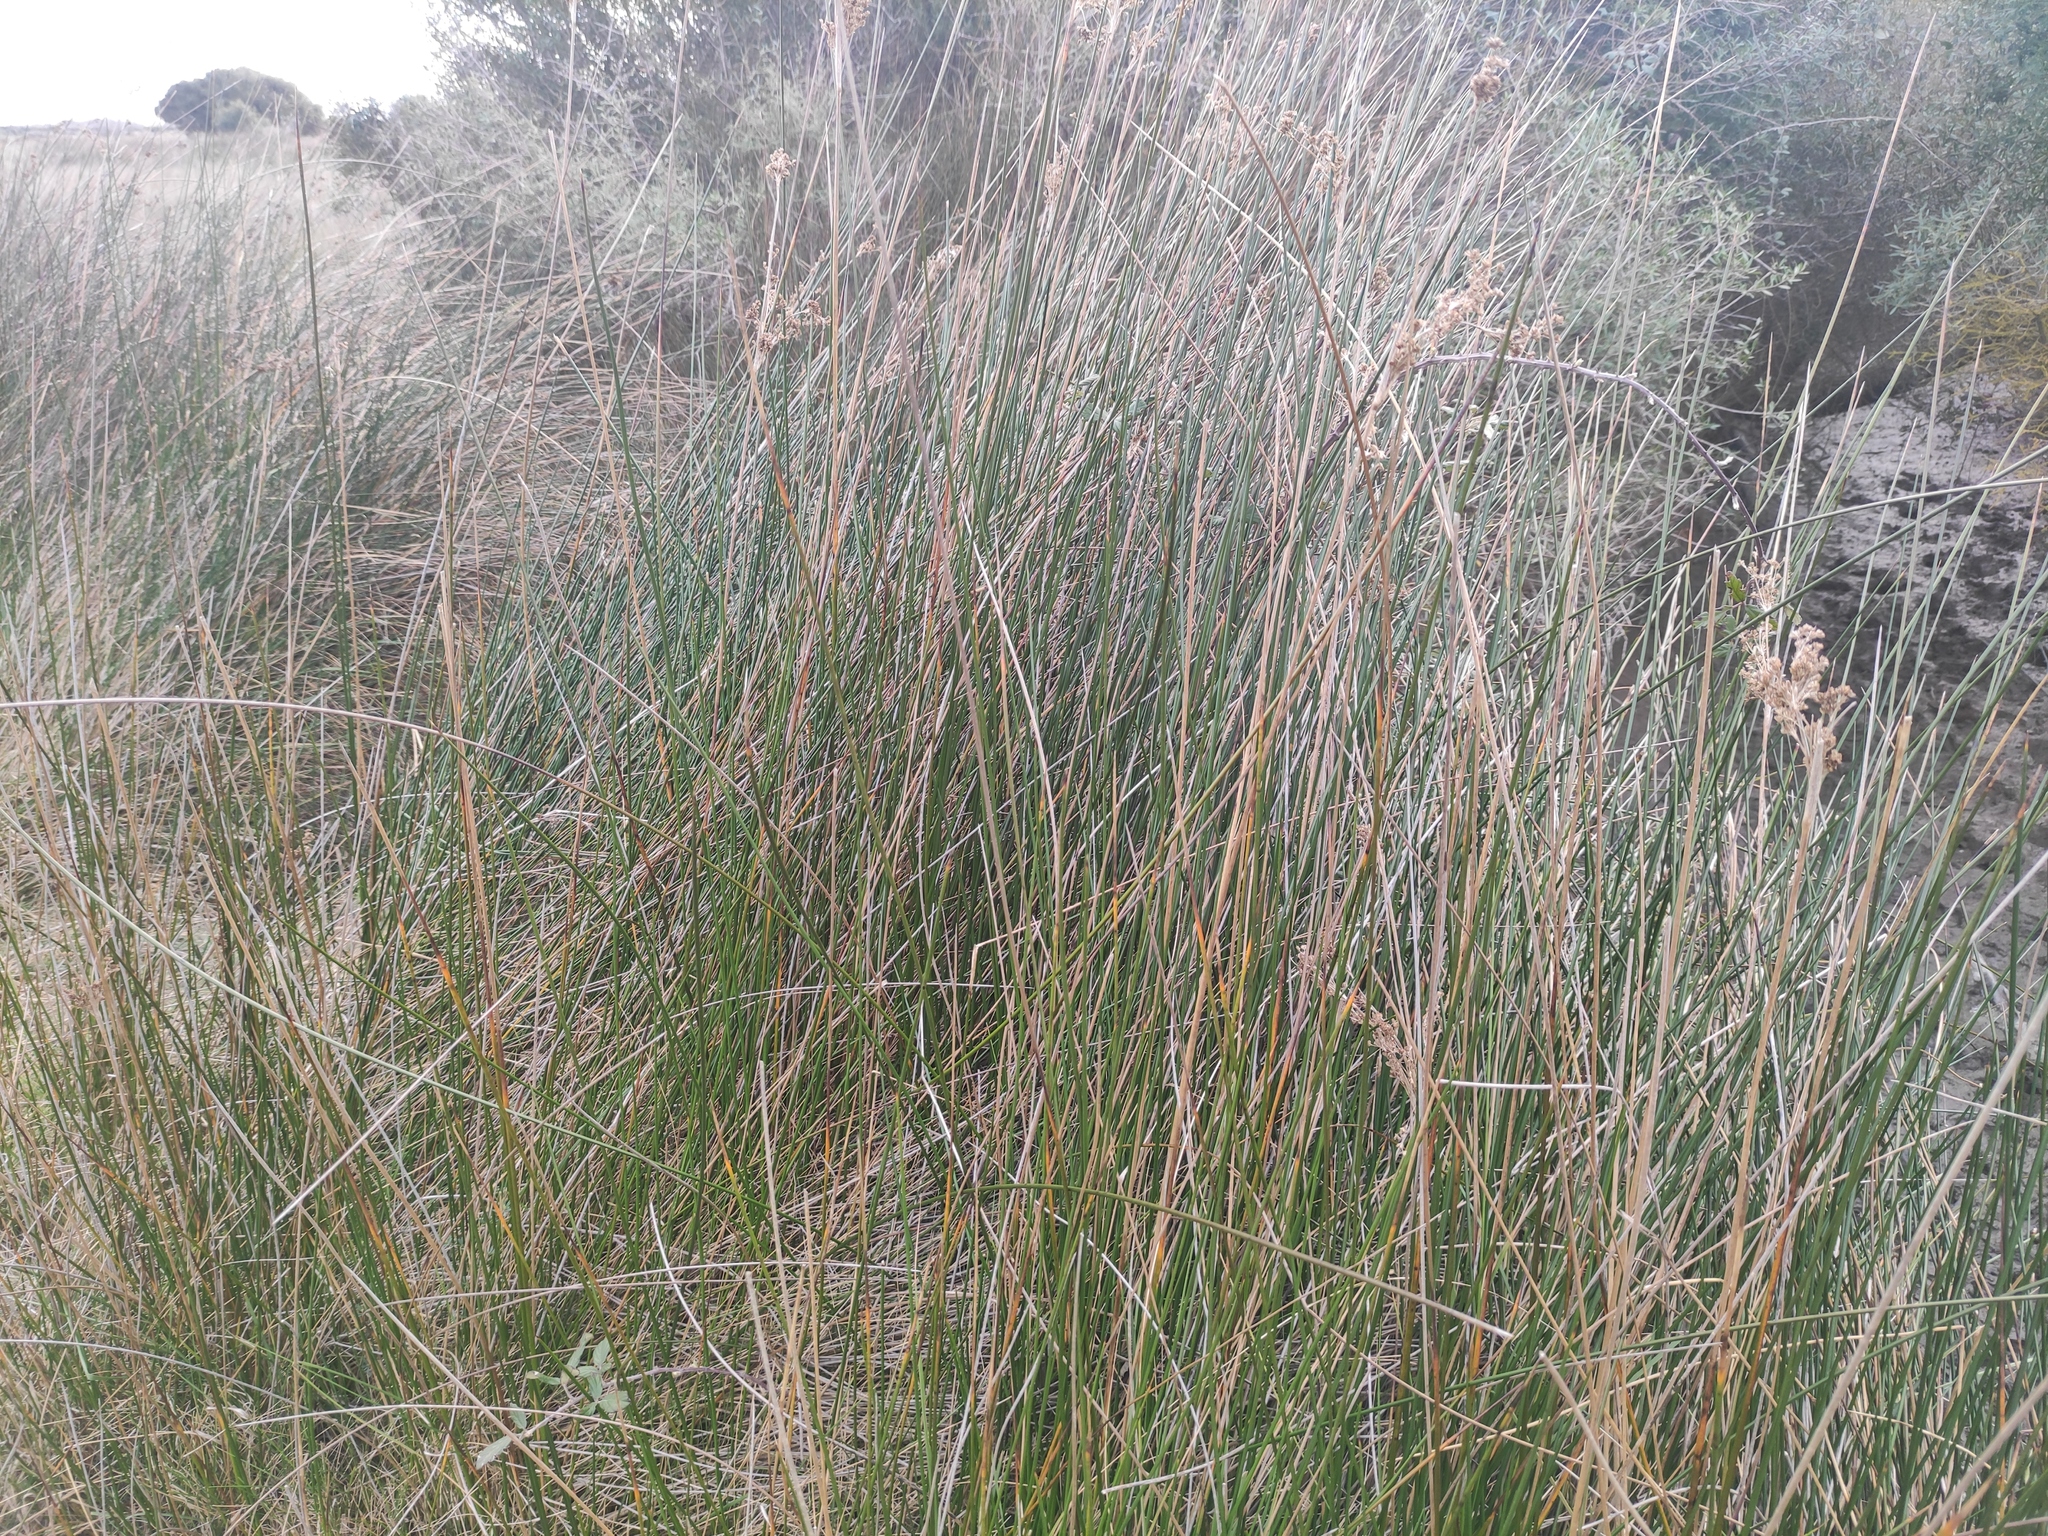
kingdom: Plantae
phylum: Tracheophyta
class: Liliopsida
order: Poales
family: Juncaceae
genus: Juncus
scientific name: Juncus maritimus
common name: Sea rush
